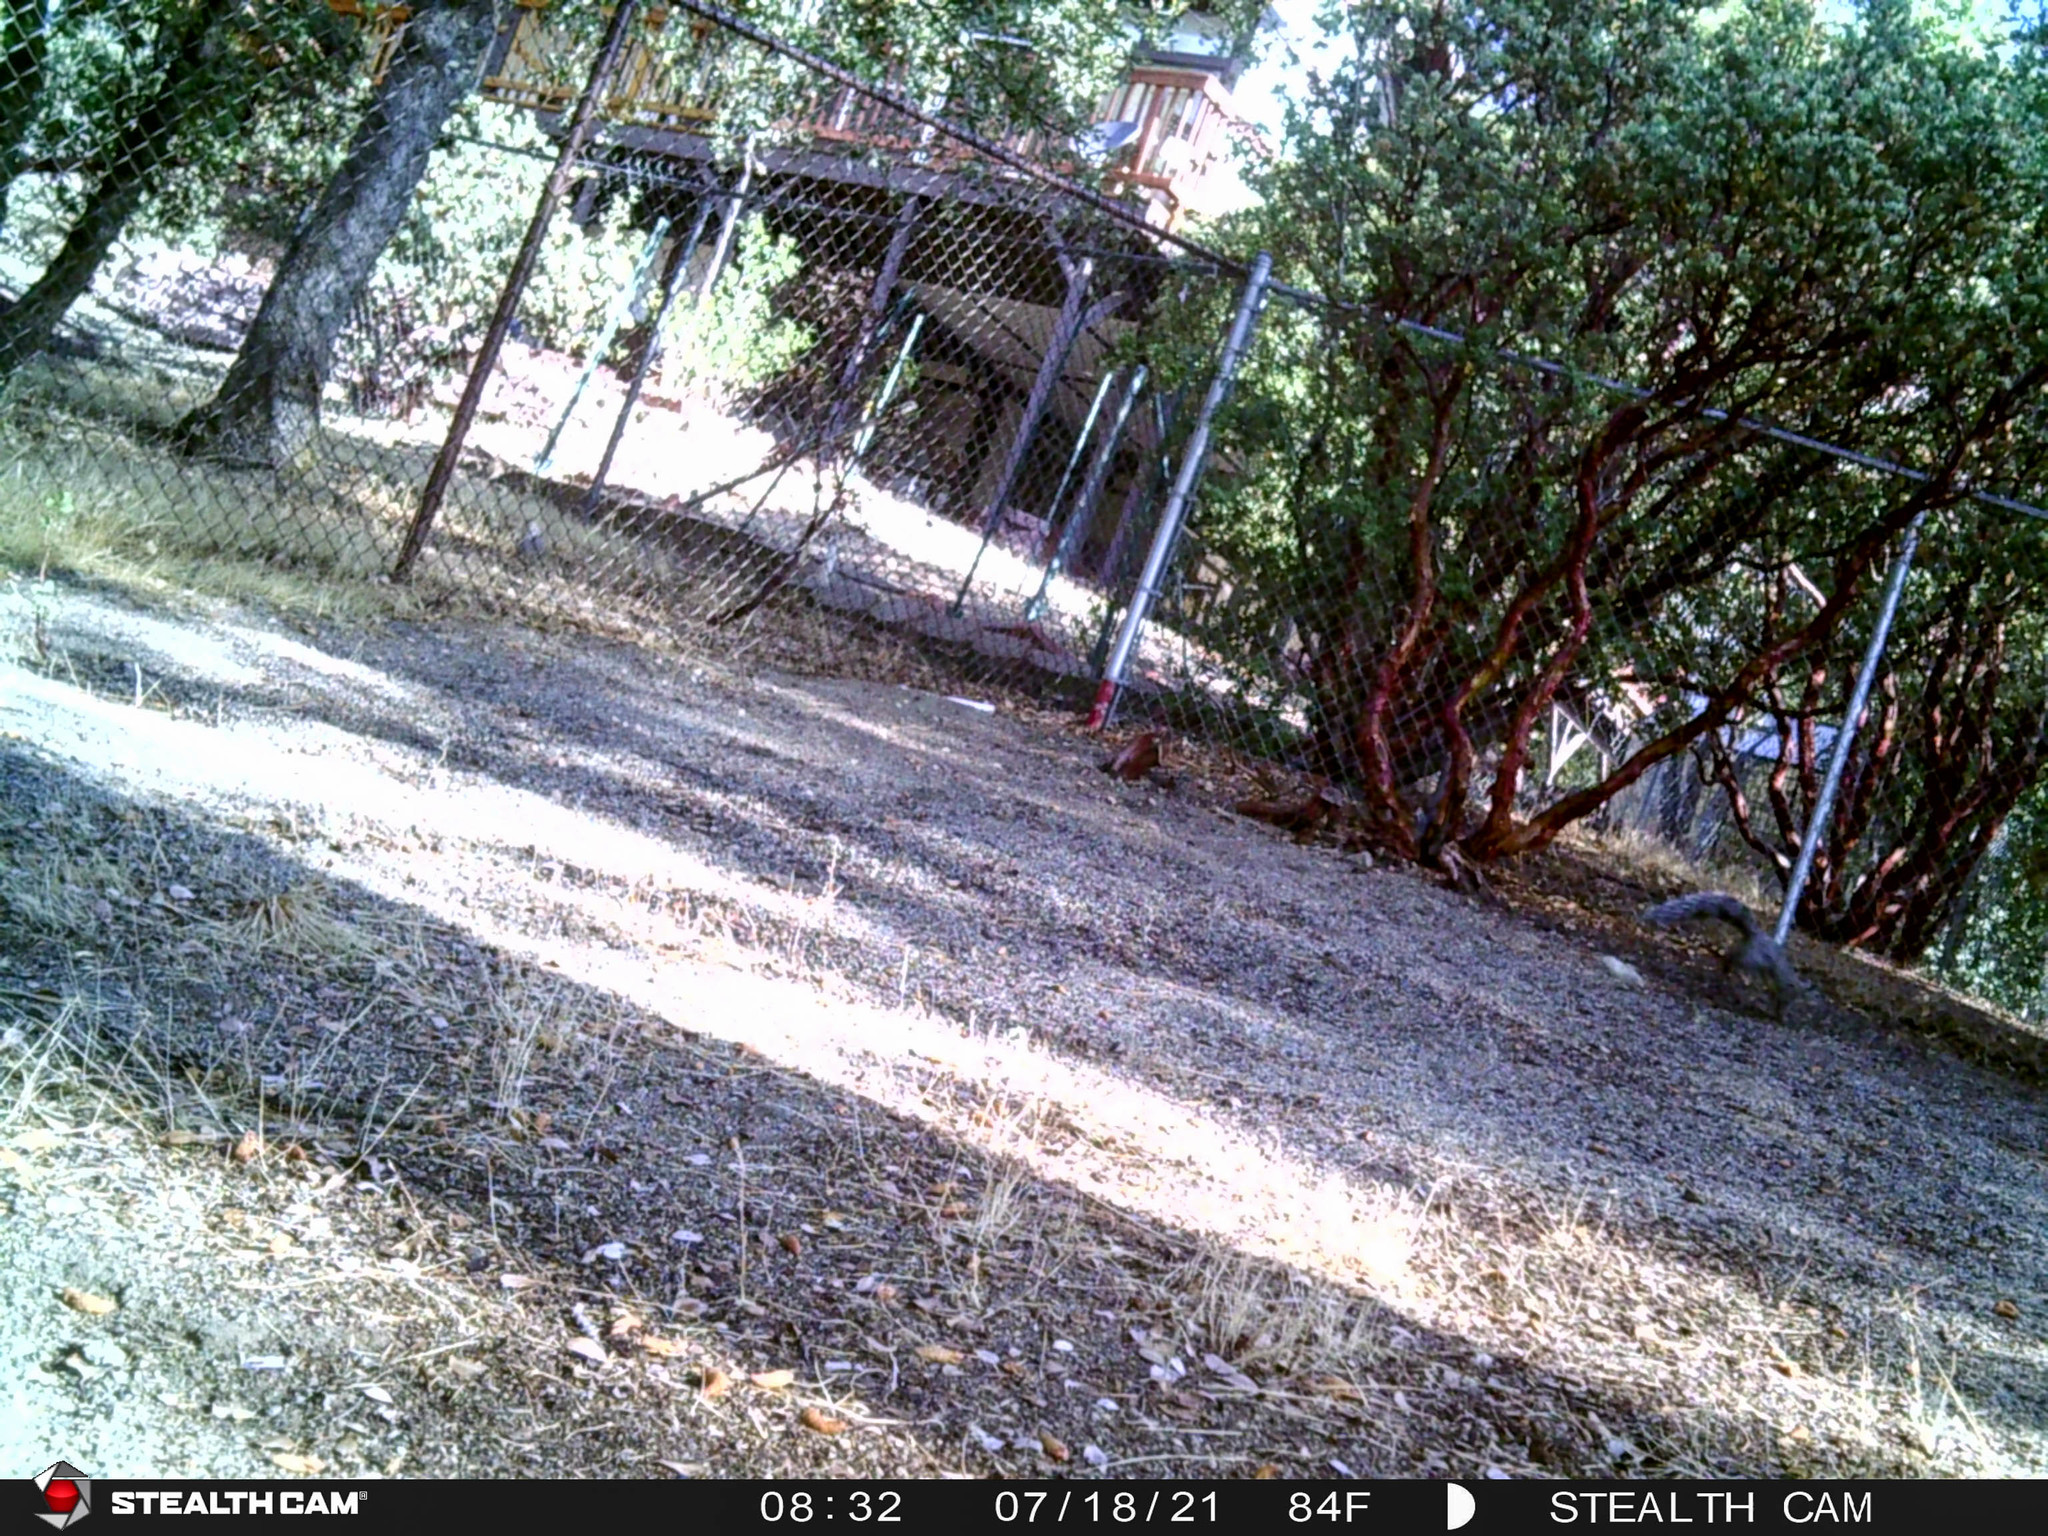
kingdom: Animalia
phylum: Chordata
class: Mammalia
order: Rodentia
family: Sciuridae
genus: Sciurus
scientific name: Sciurus griseus
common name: Western gray squirrel
